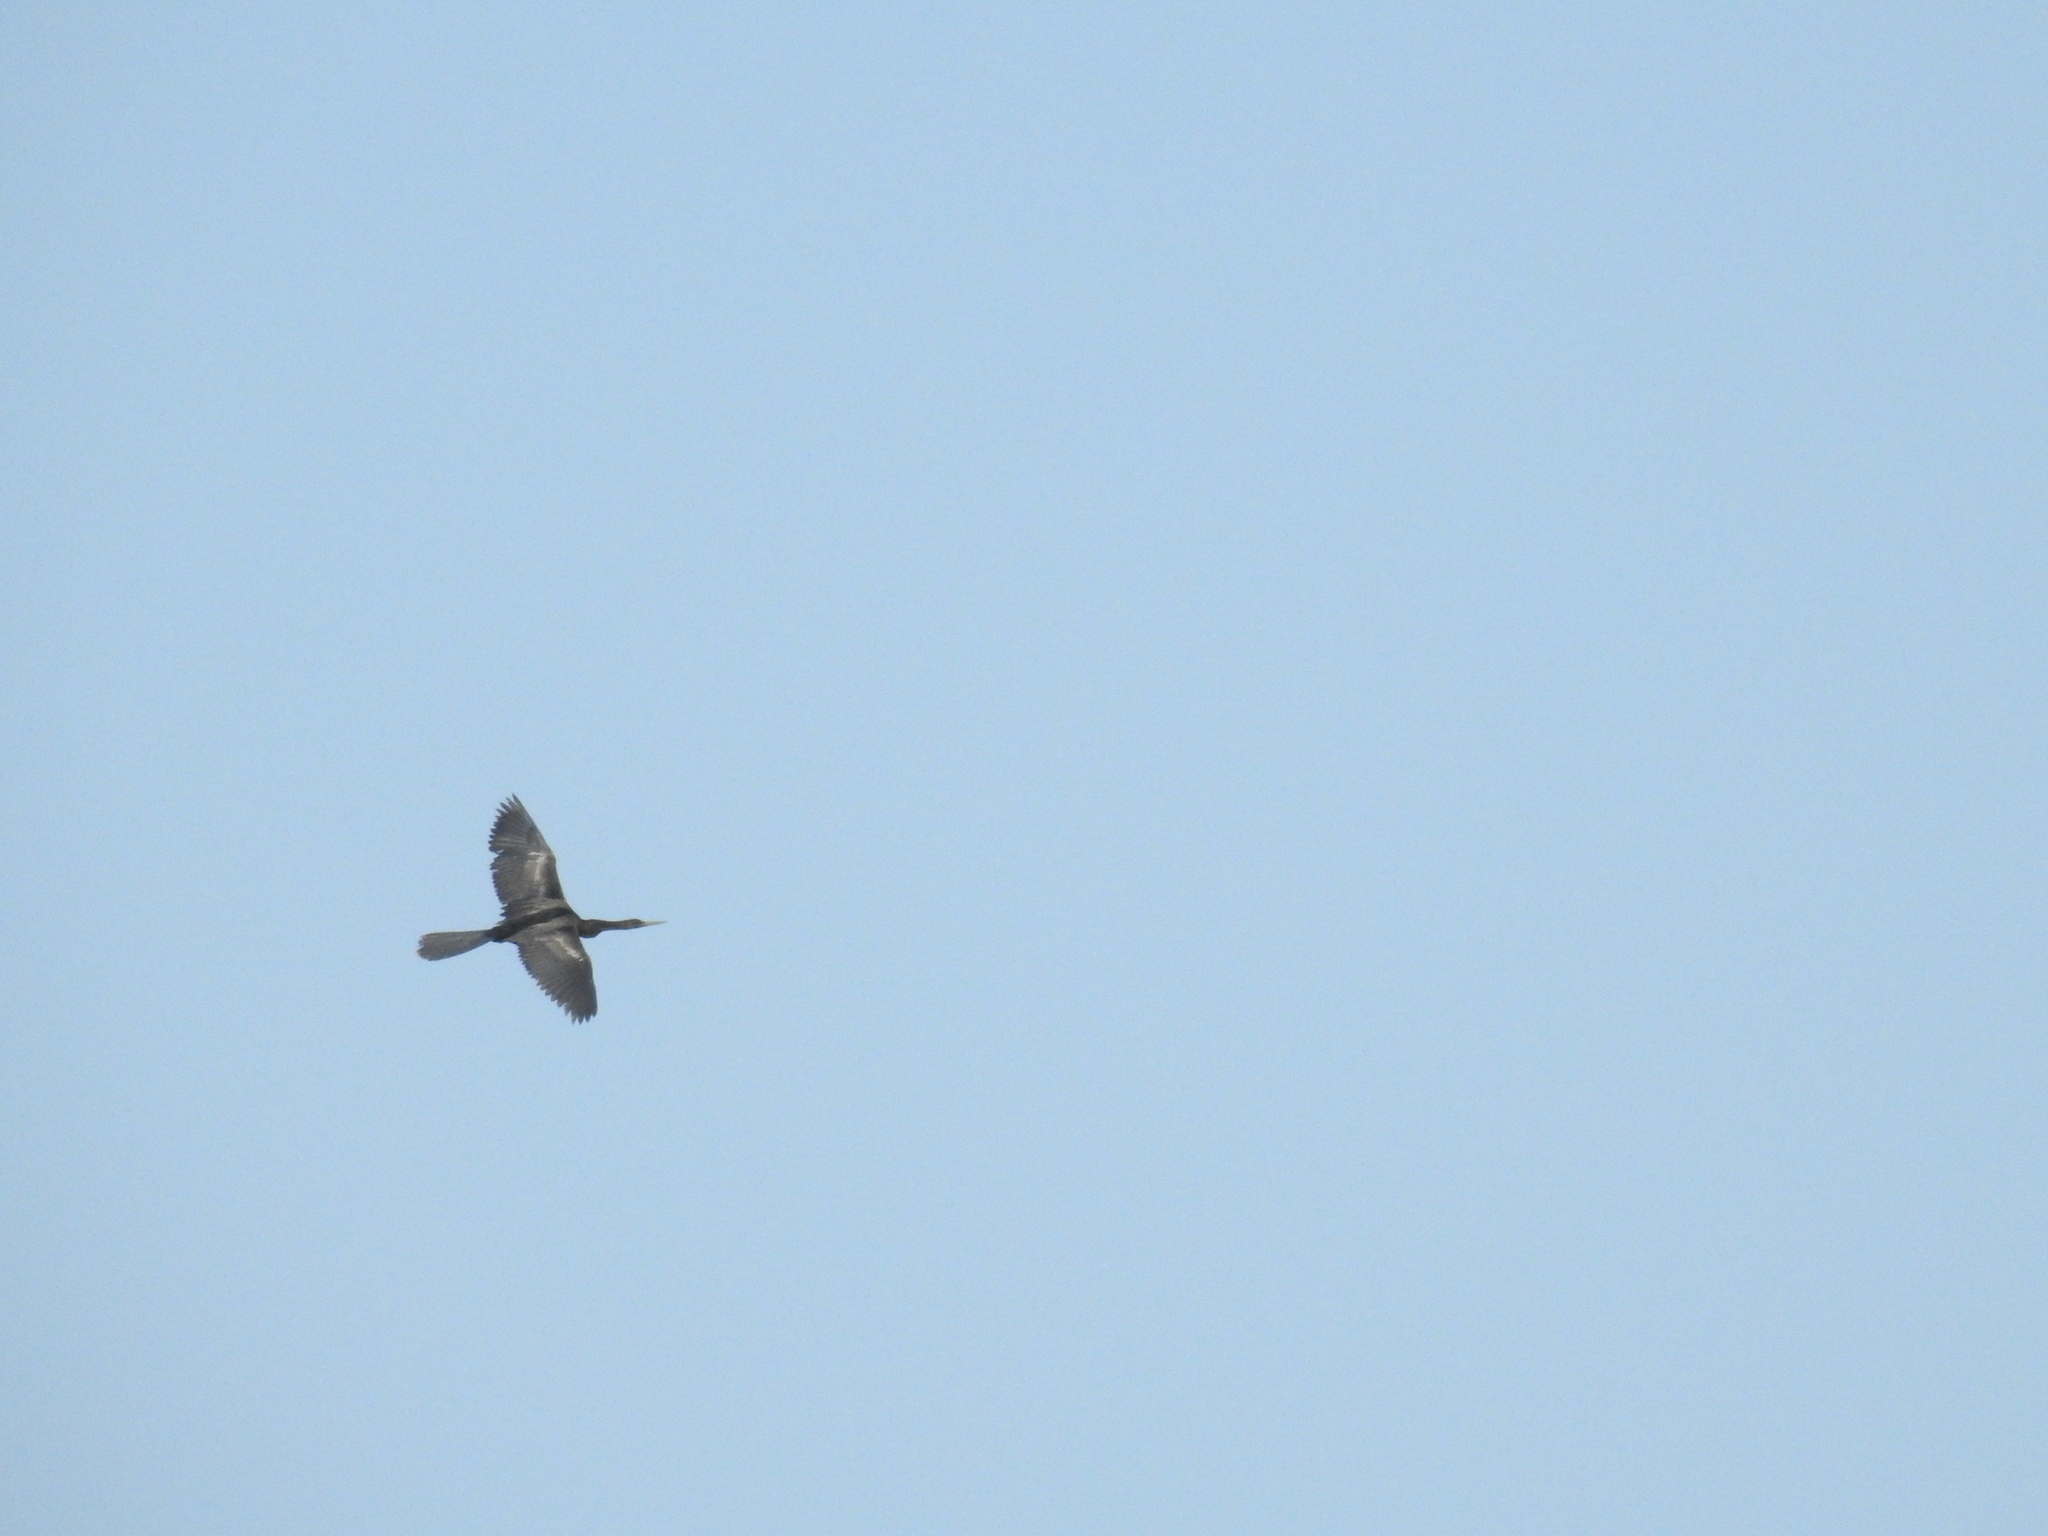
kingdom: Animalia
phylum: Chordata
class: Aves
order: Suliformes
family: Anhingidae
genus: Anhinga
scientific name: Anhinga anhinga
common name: Anhinga
